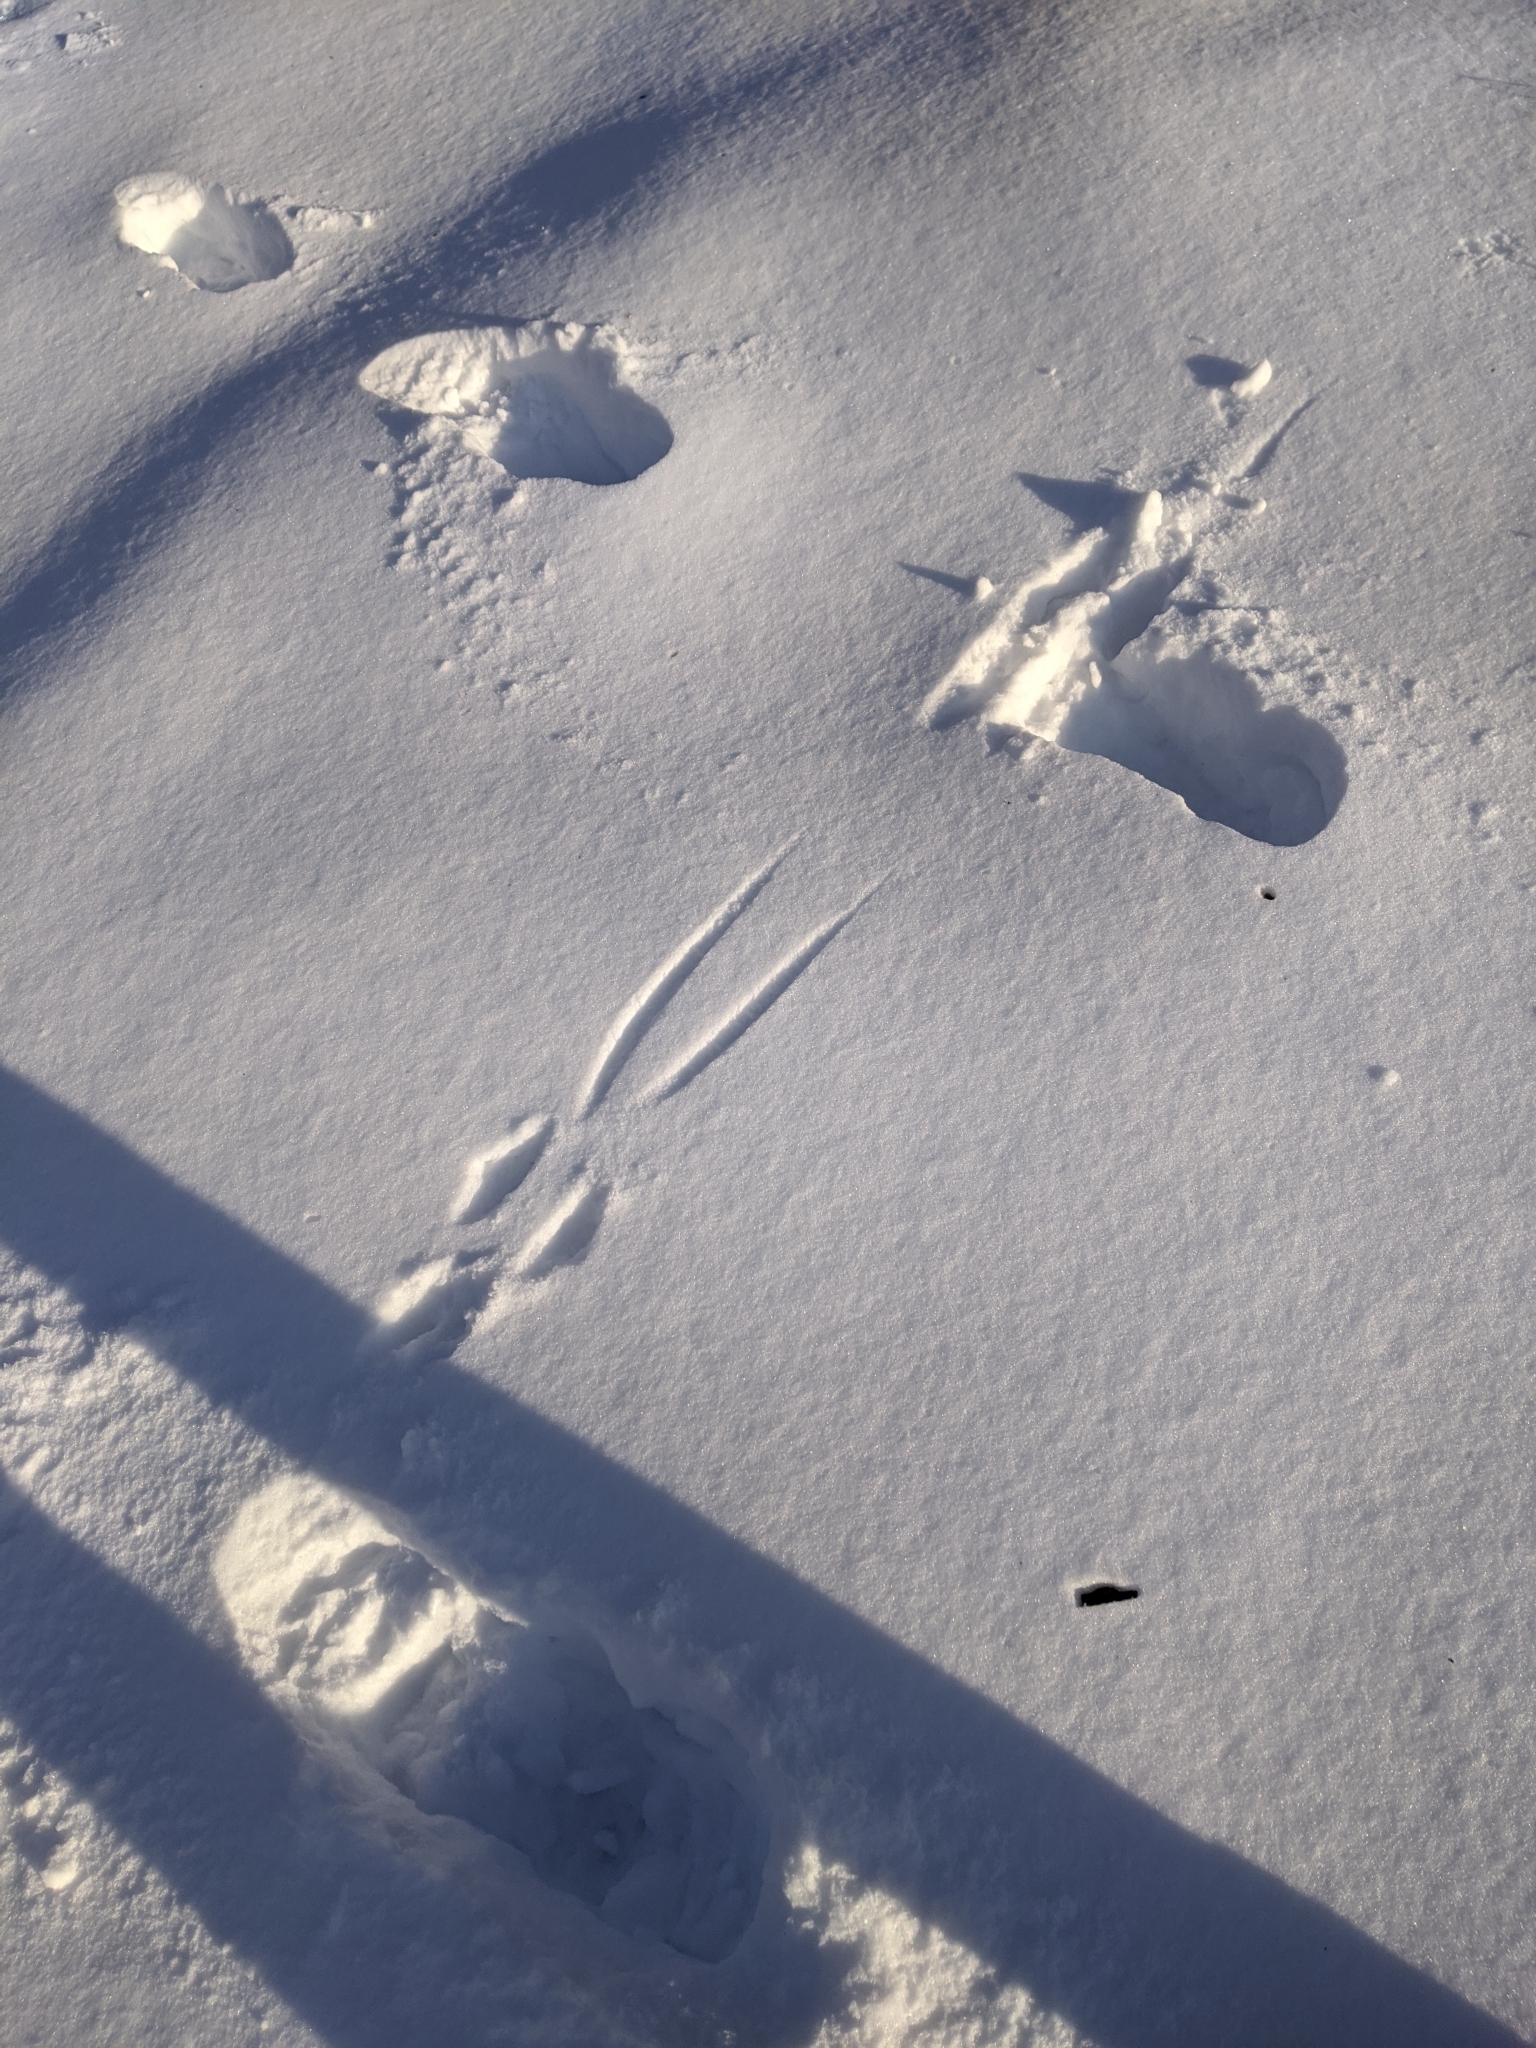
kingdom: Animalia
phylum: Chordata
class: Mammalia
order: Rodentia
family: Sciuridae
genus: Sciurus
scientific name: Sciurus carolinensis
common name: Eastern gray squirrel
